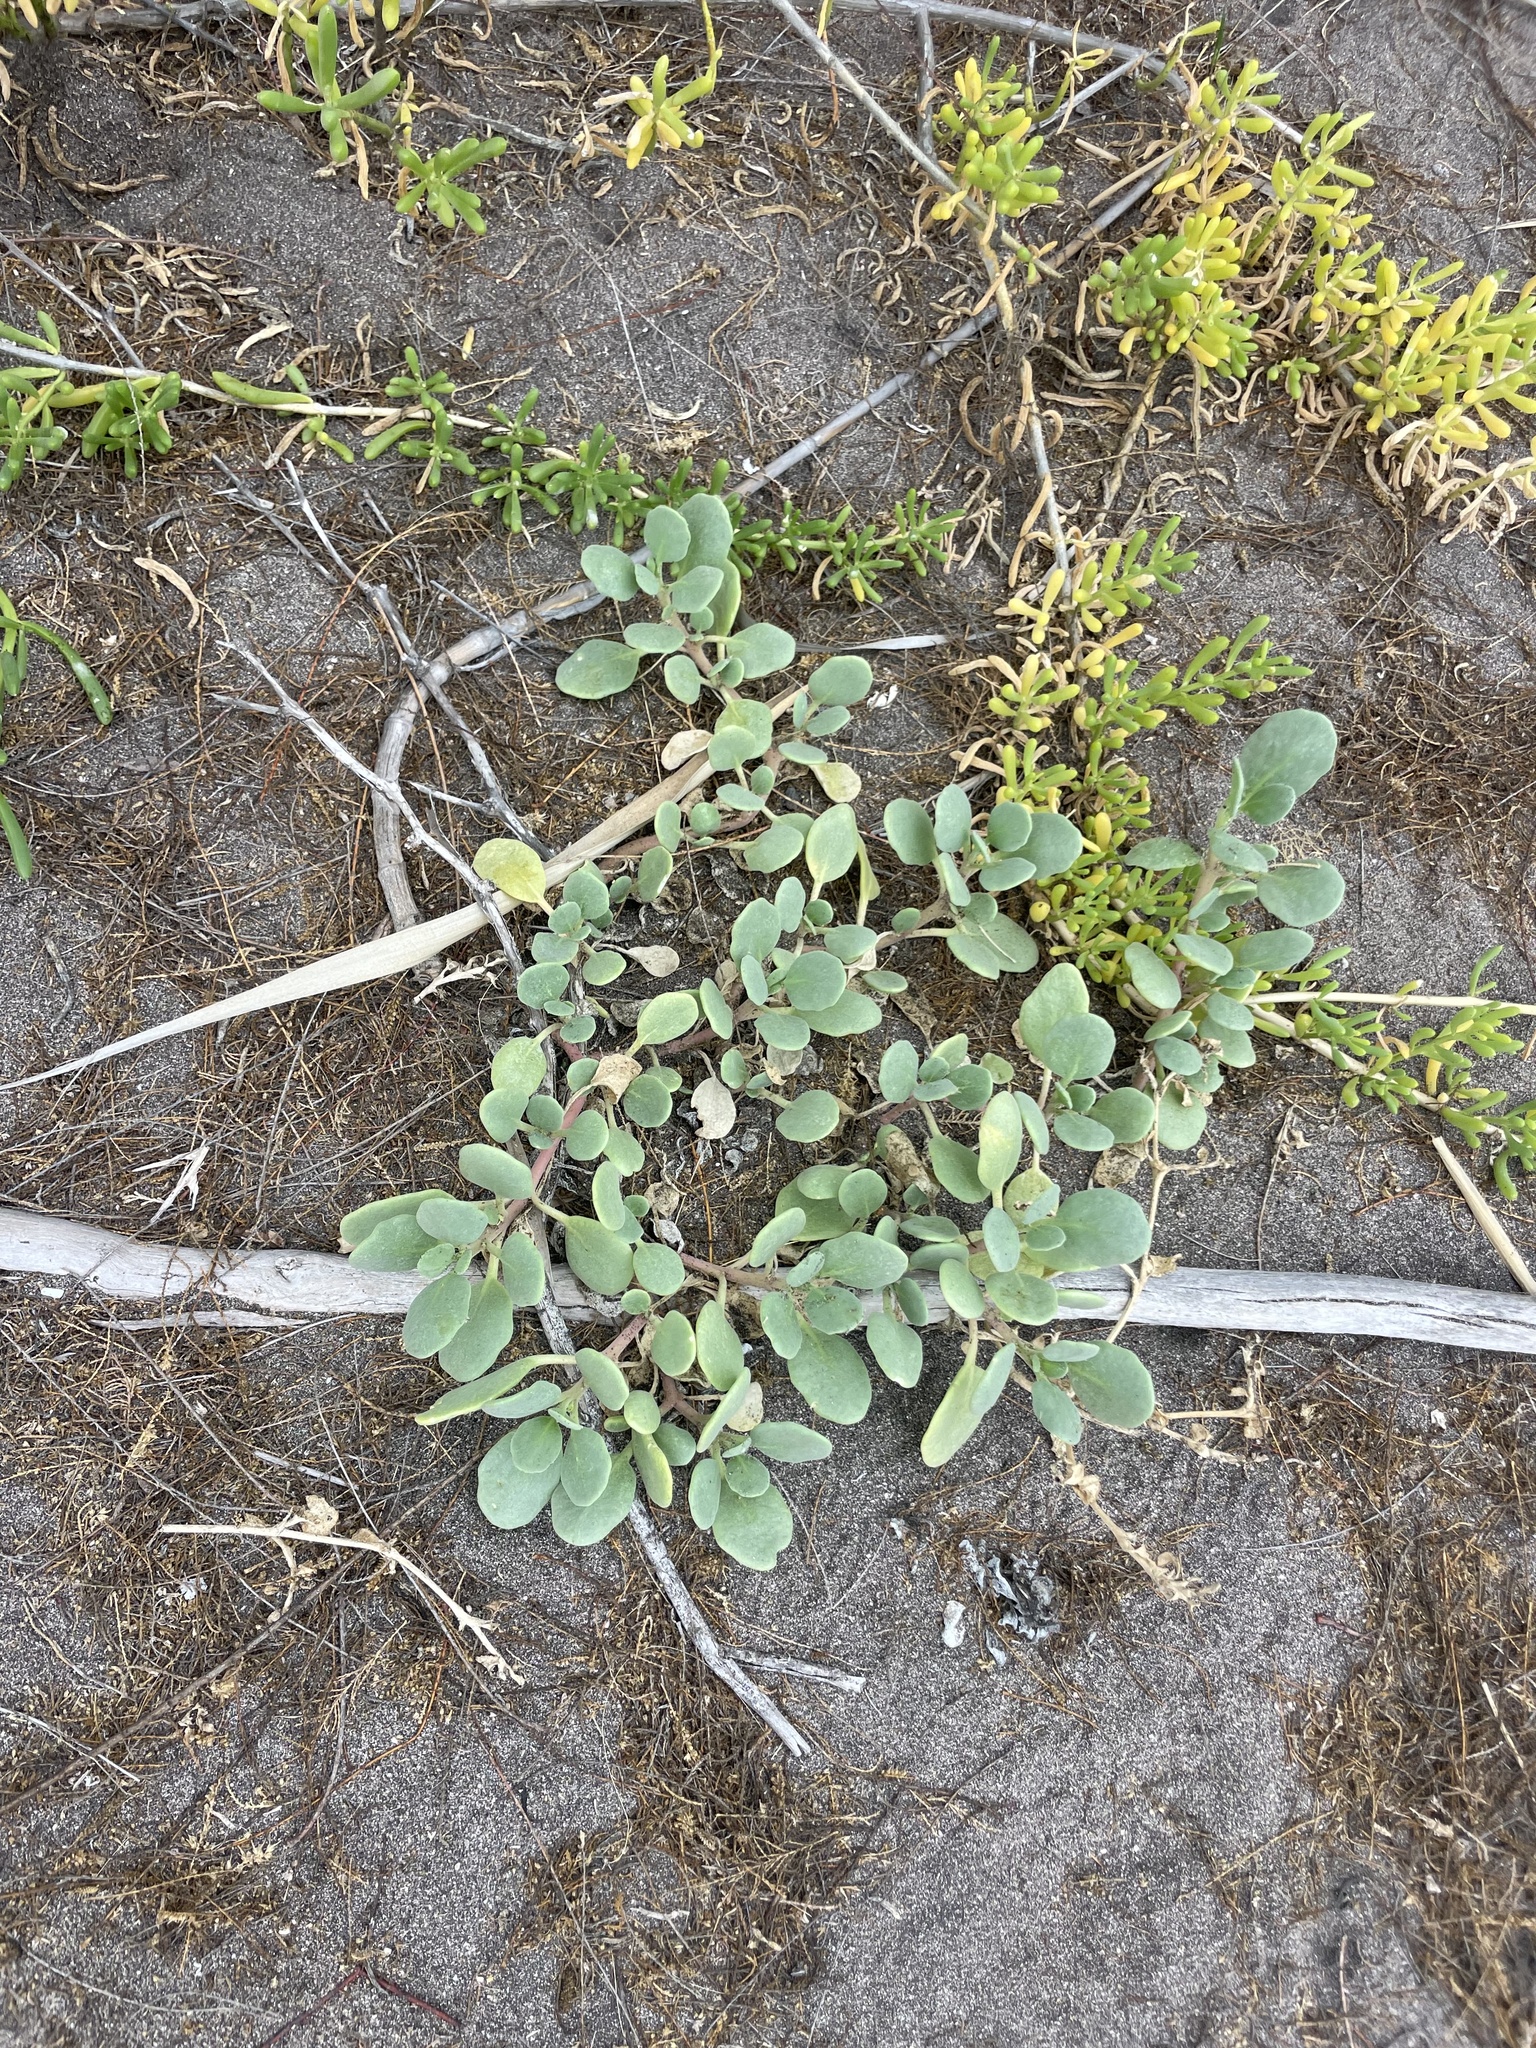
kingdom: Plantae
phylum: Tracheophyta
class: Magnoliopsida
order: Caryophyllales
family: Nyctaginaceae
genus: Abronia
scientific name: Abronia maritima
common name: Red sand-verbena
